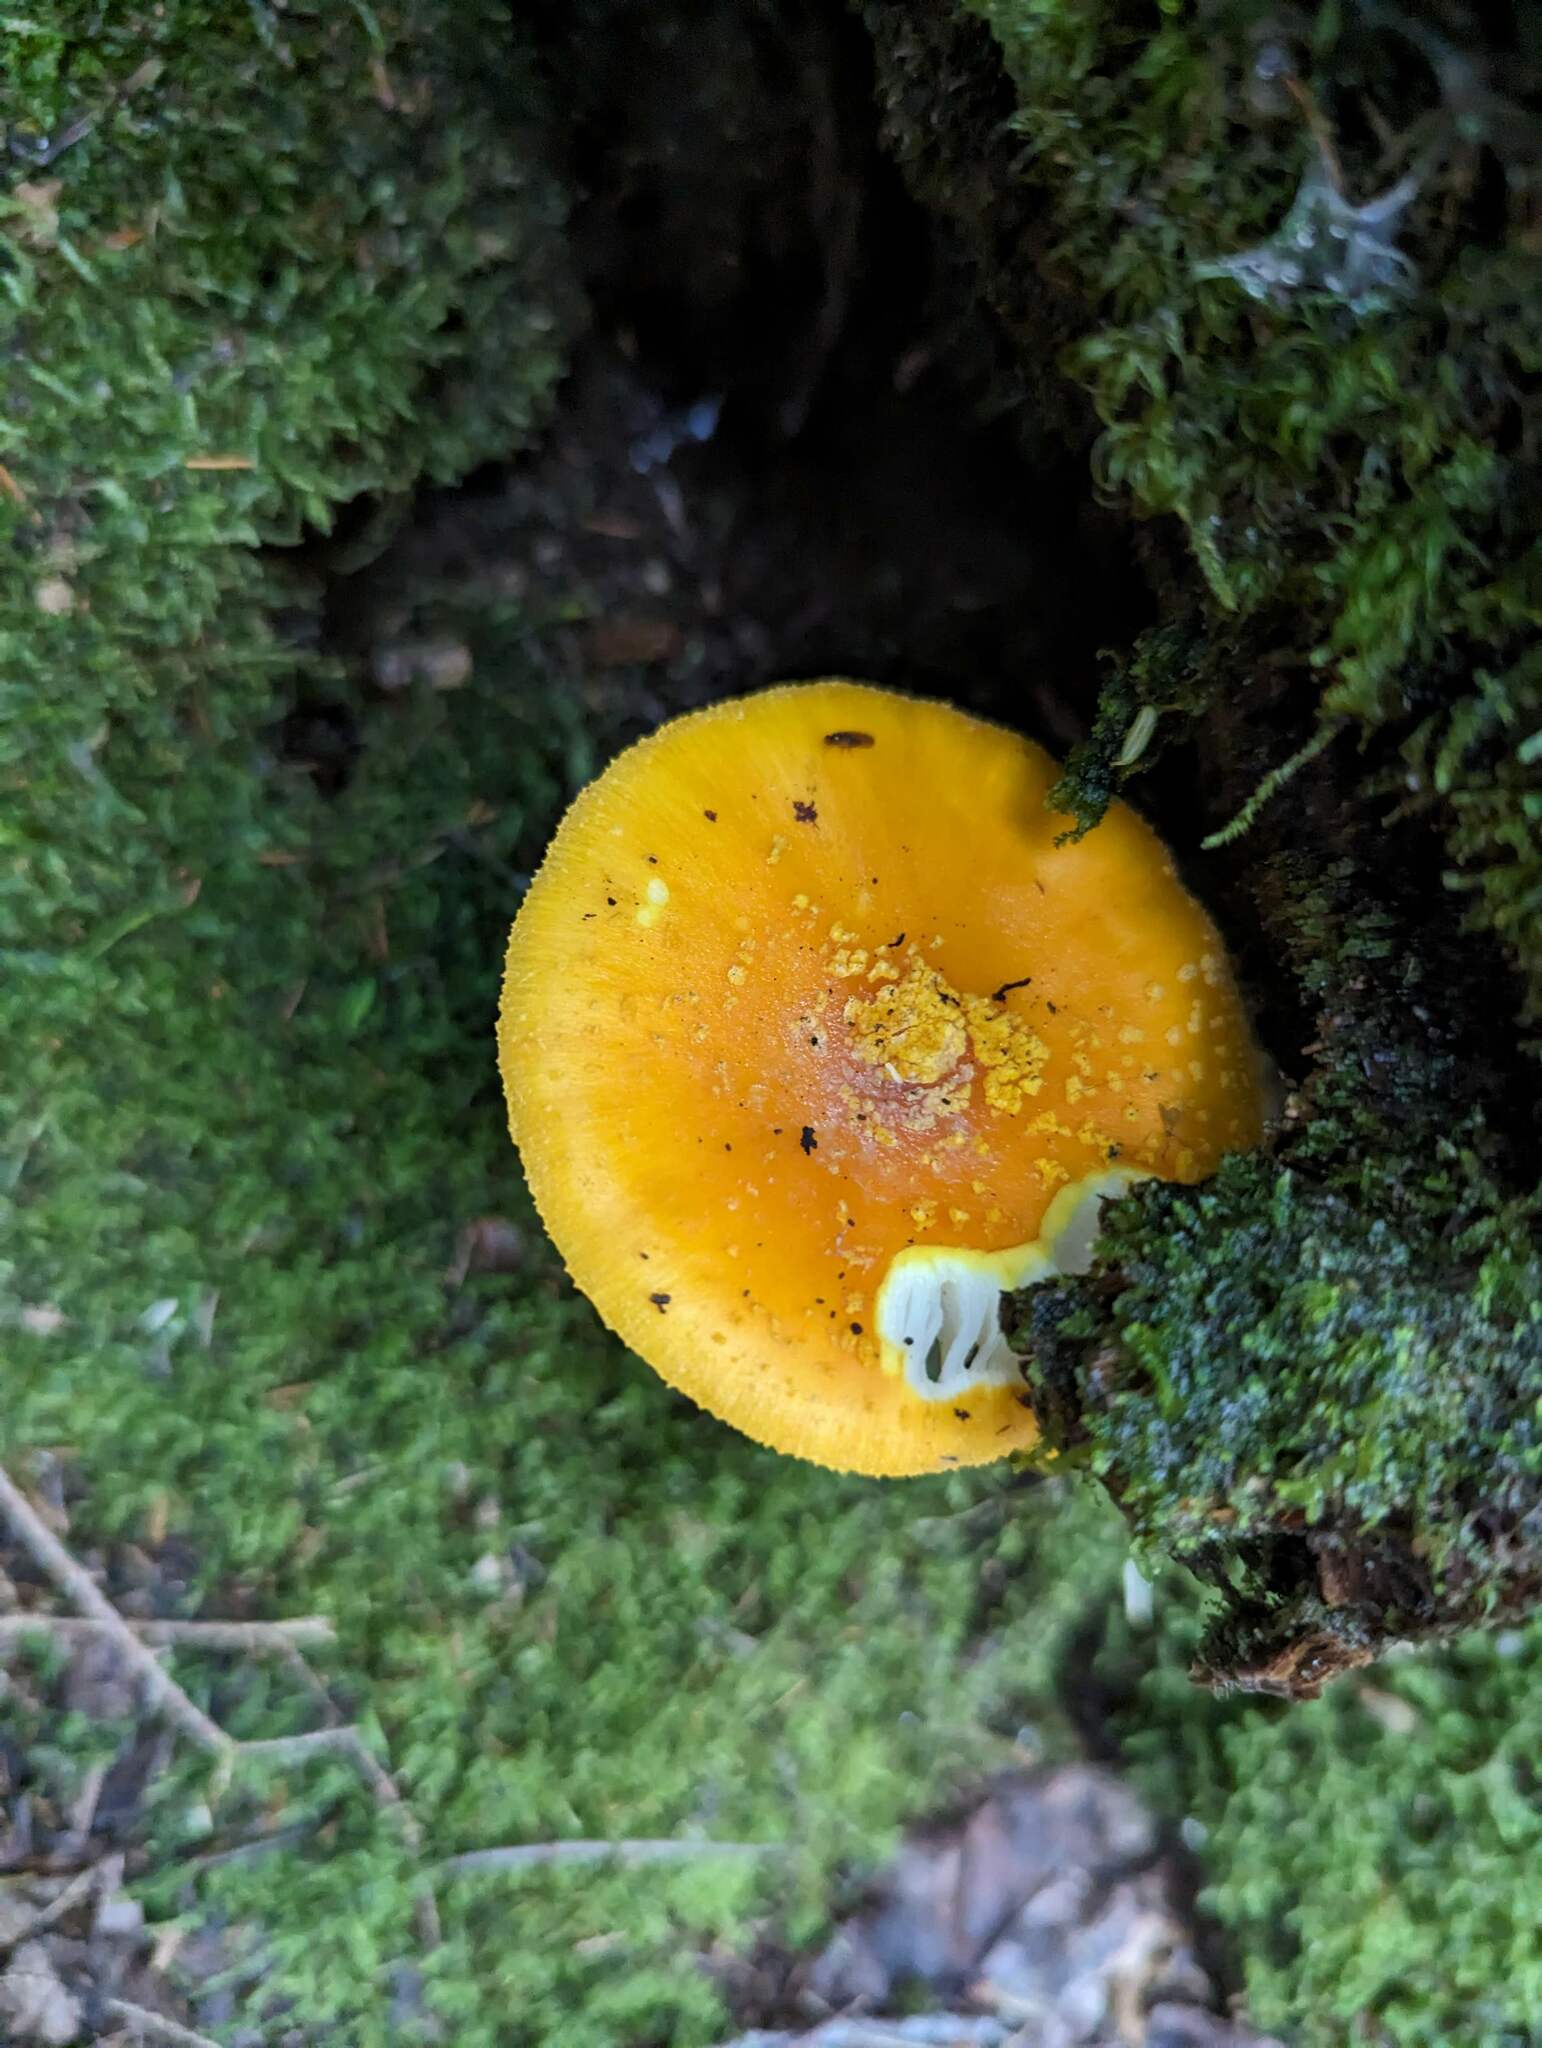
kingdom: Fungi
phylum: Basidiomycota
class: Agaricomycetes
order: Agaricales
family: Amanitaceae
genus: Amanita
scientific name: Amanita flavoconia
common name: Yellow patches
